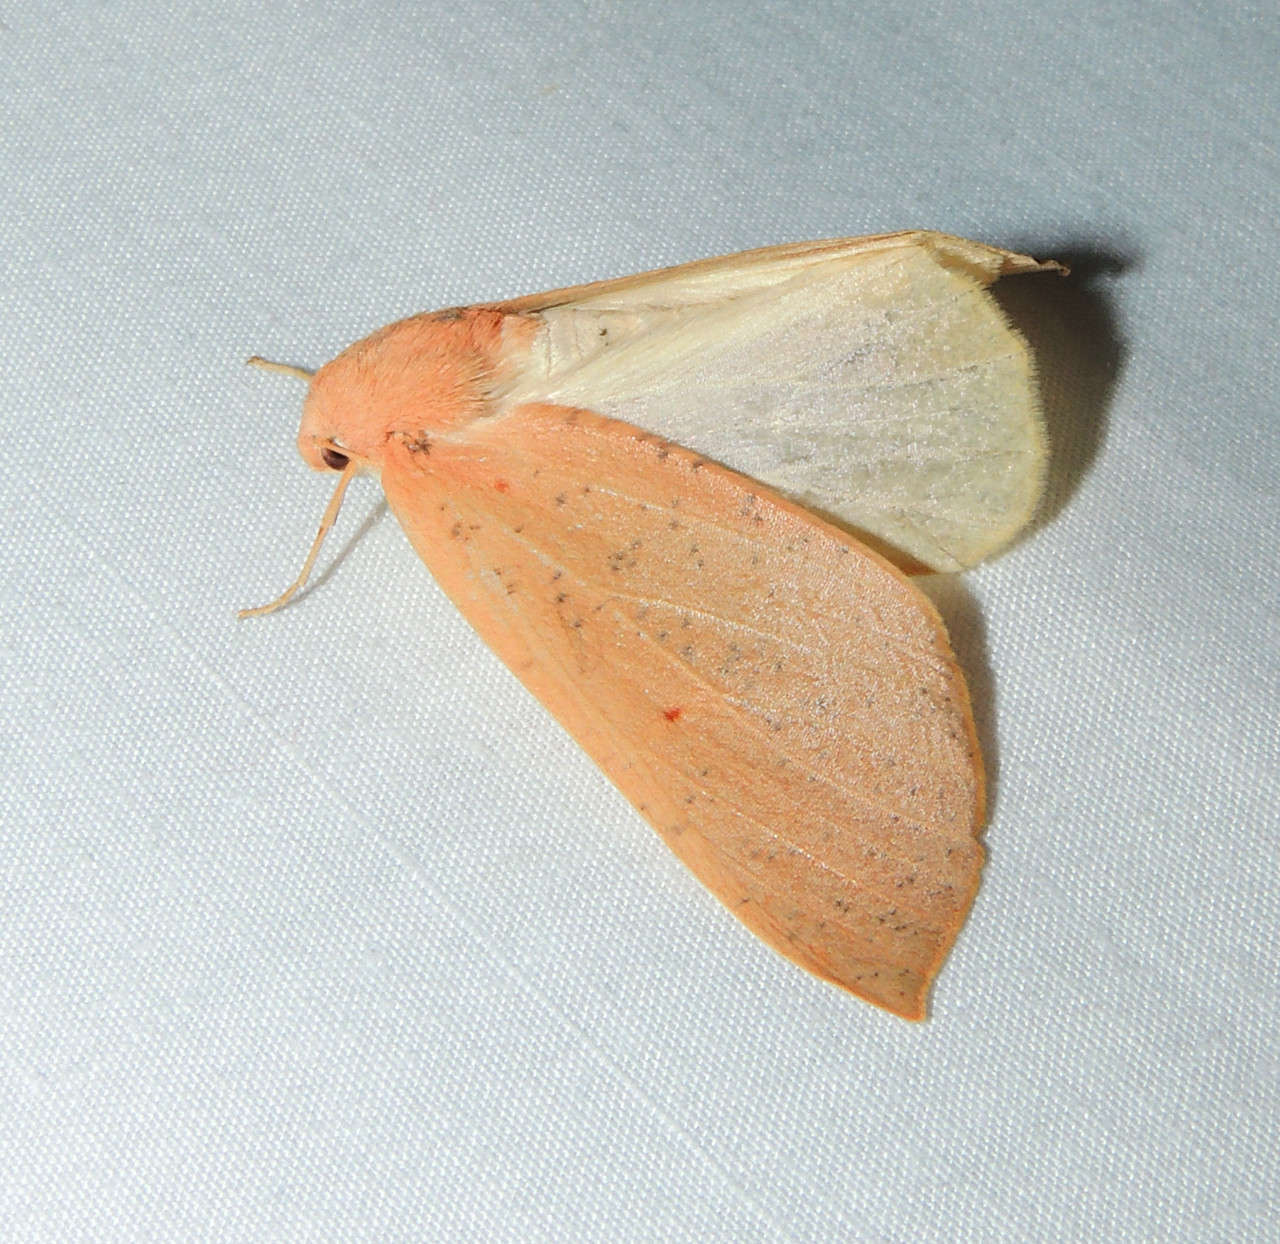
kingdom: Animalia
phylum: Arthropoda
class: Insecta
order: Lepidoptera
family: Geometridae
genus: Plesanemma
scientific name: Plesanemma fucata
